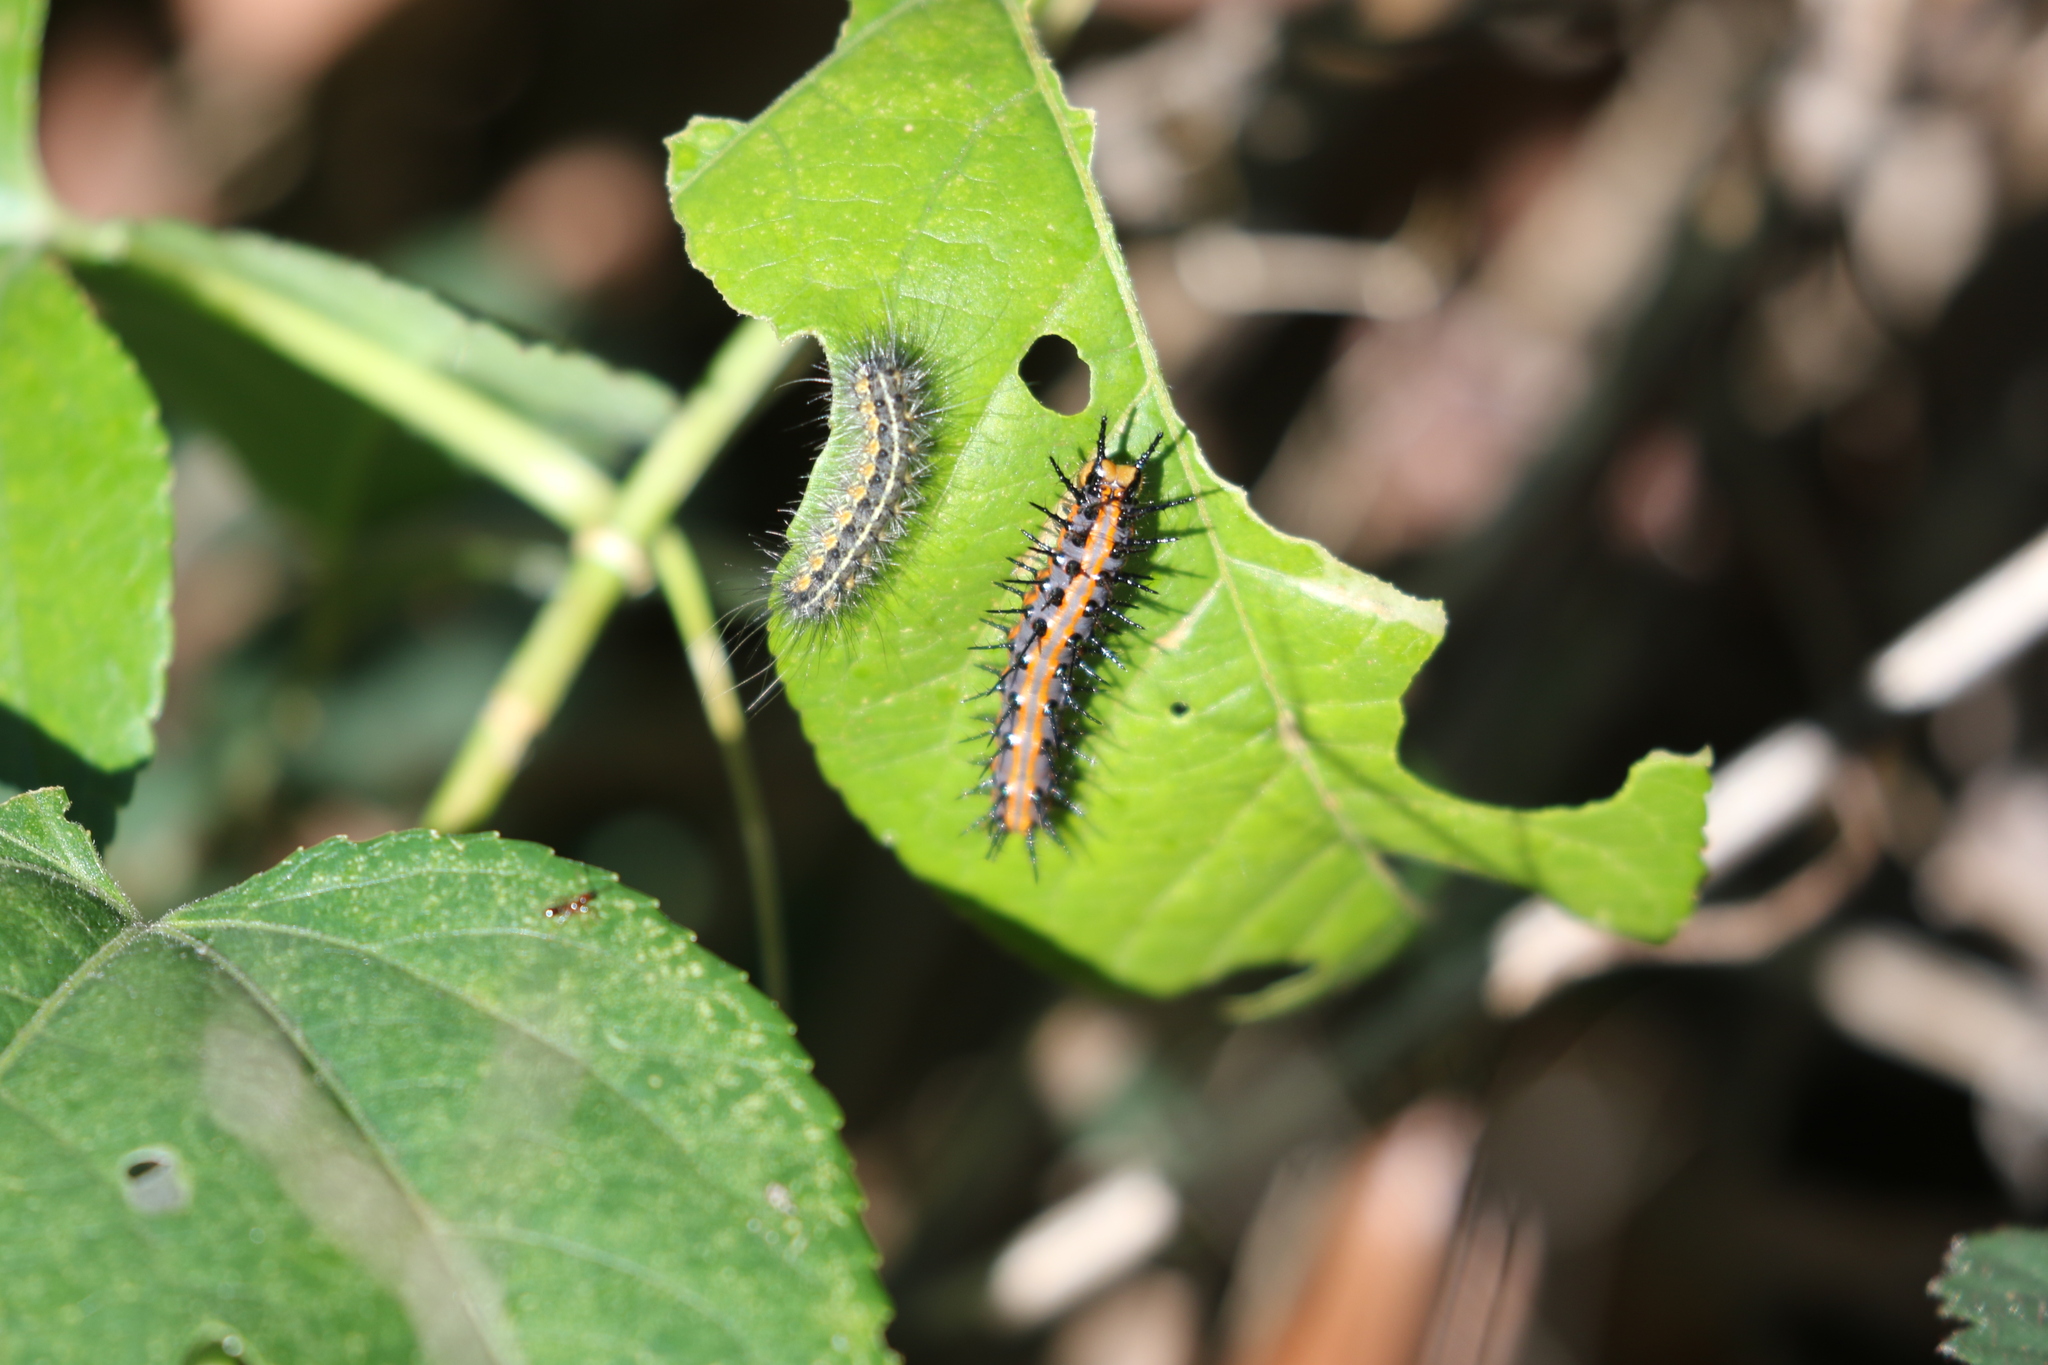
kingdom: Animalia
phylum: Arthropoda
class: Insecta
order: Lepidoptera
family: Nymphalidae
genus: Dione
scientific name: Dione vanillae
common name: Gulf fritillary
